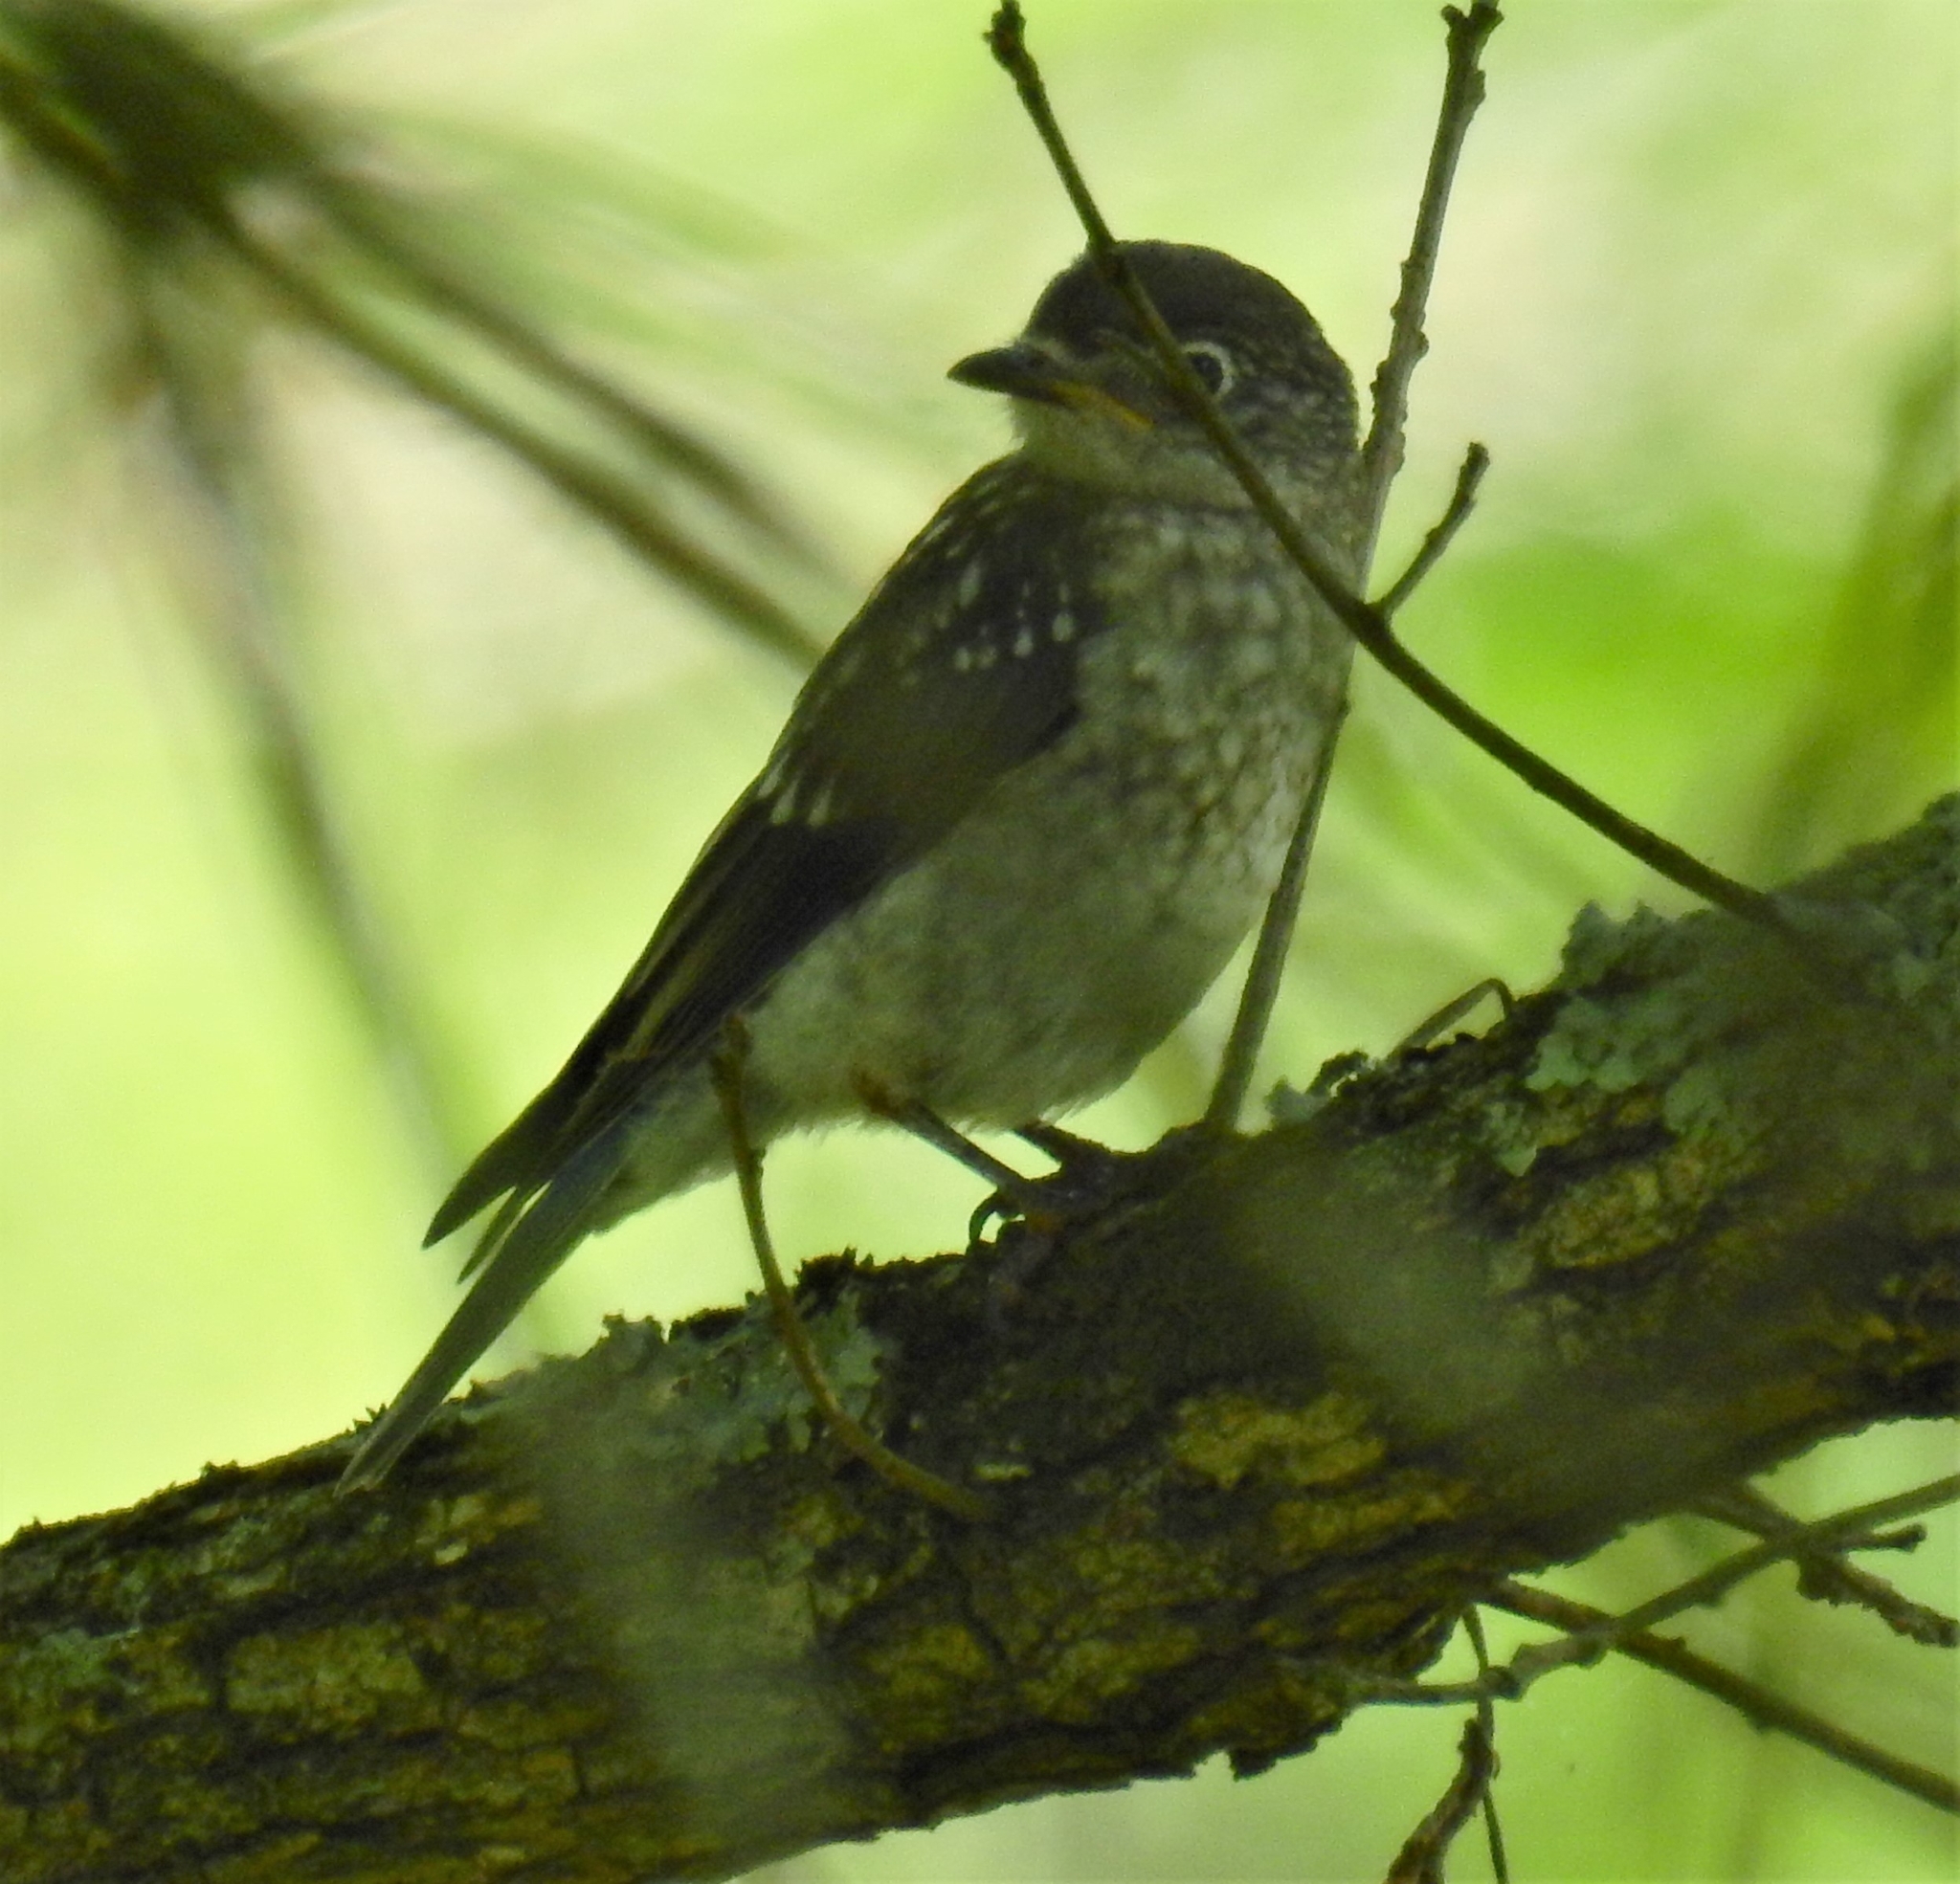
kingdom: Animalia
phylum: Chordata
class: Aves
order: Passeriformes
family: Turdidae
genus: Sialia
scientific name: Sialia sialis
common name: Eastern bluebird
